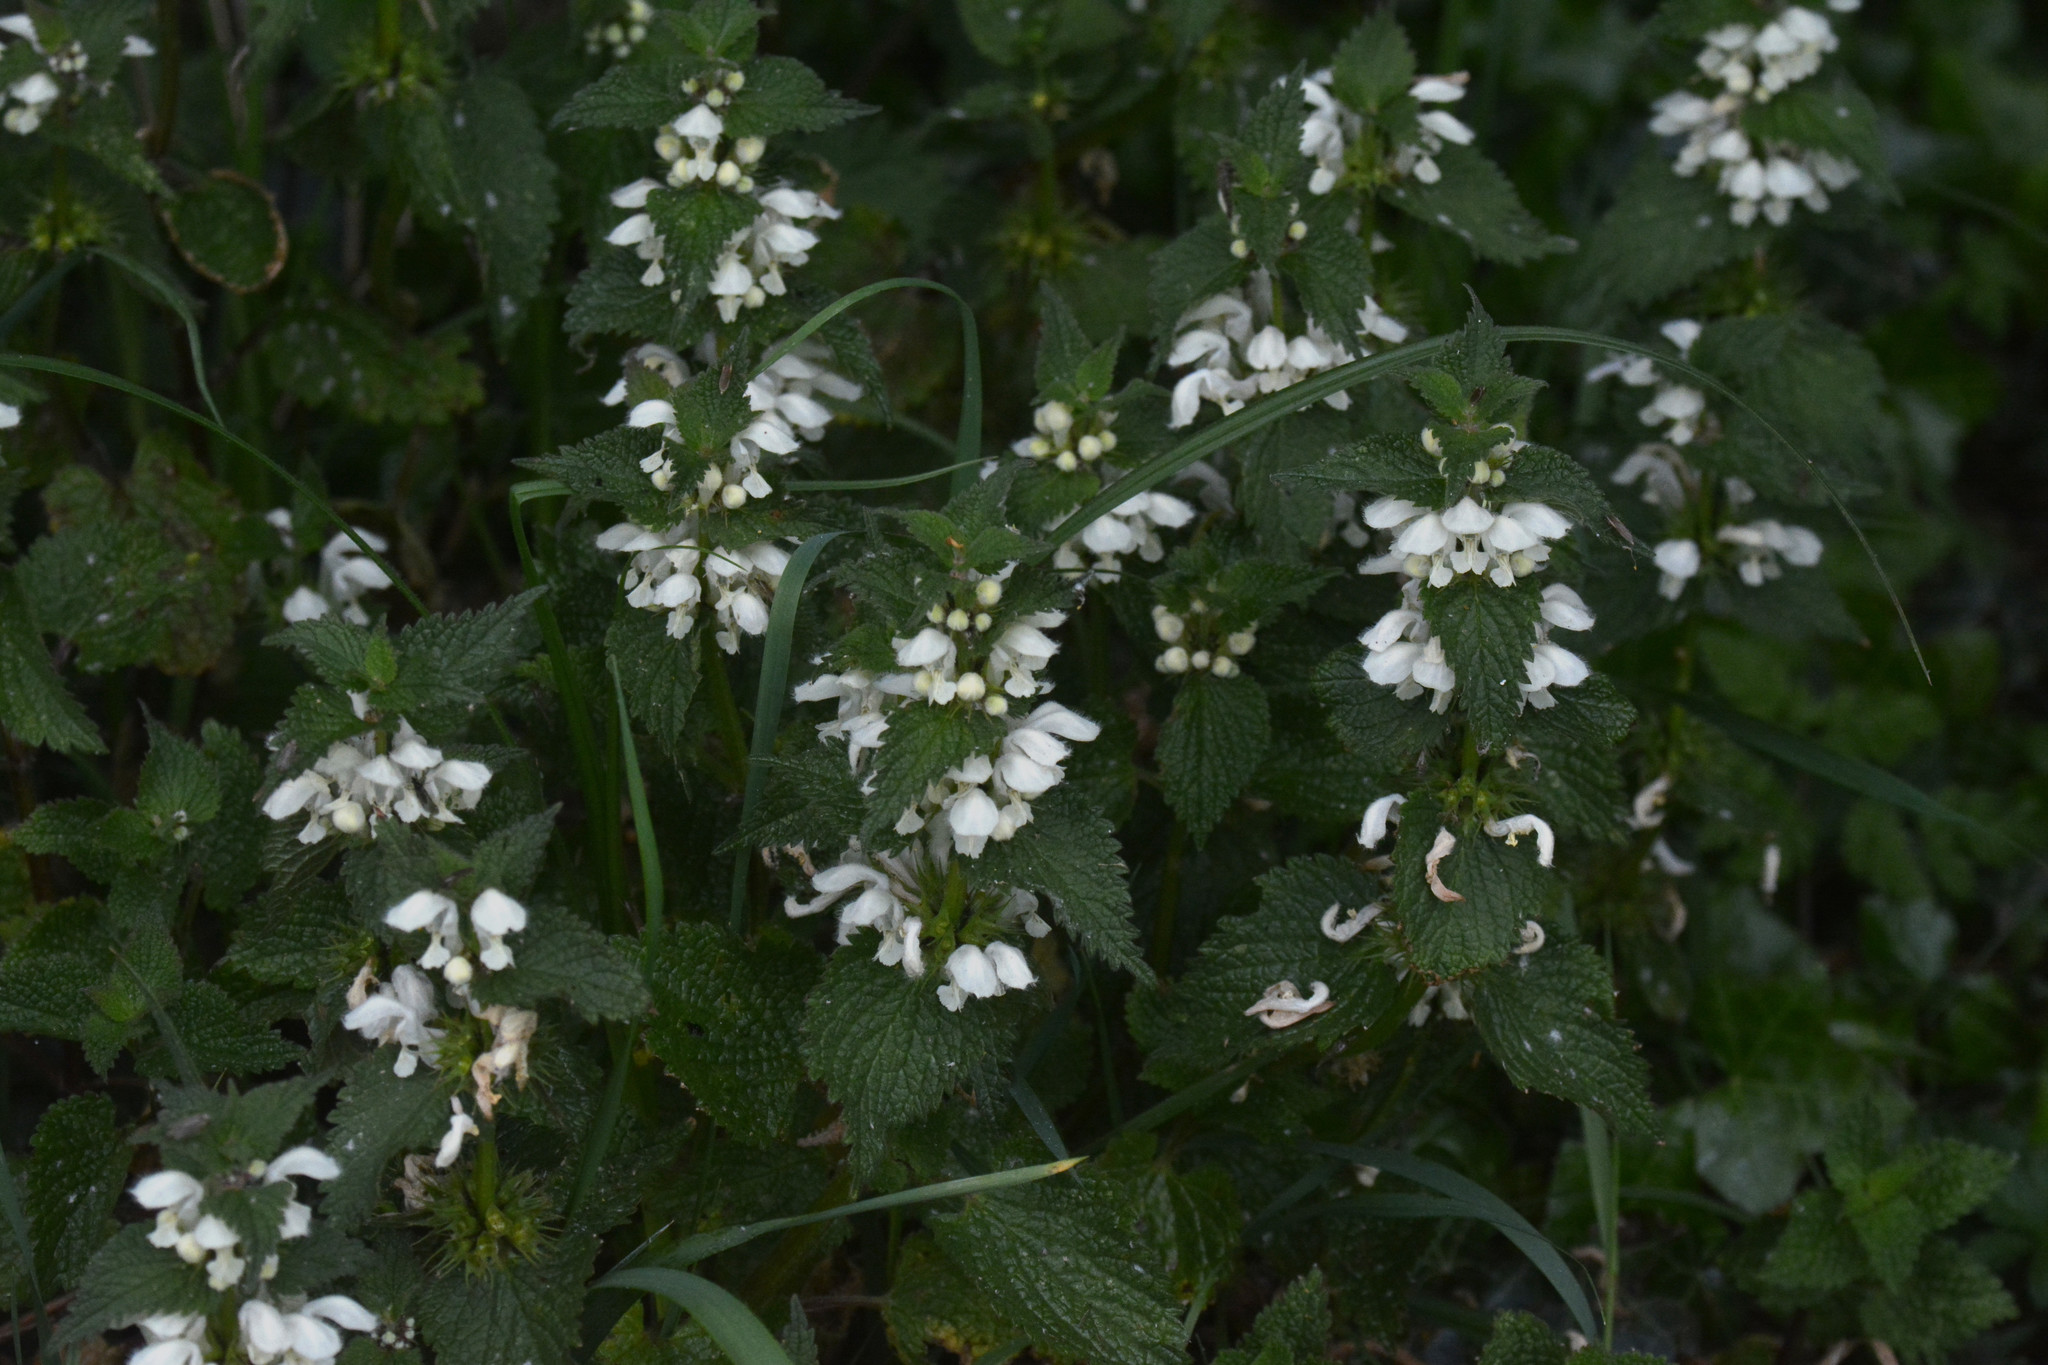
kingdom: Plantae
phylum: Tracheophyta
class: Magnoliopsida
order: Lamiales
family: Lamiaceae
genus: Lamium
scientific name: Lamium album
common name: White dead-nettle
